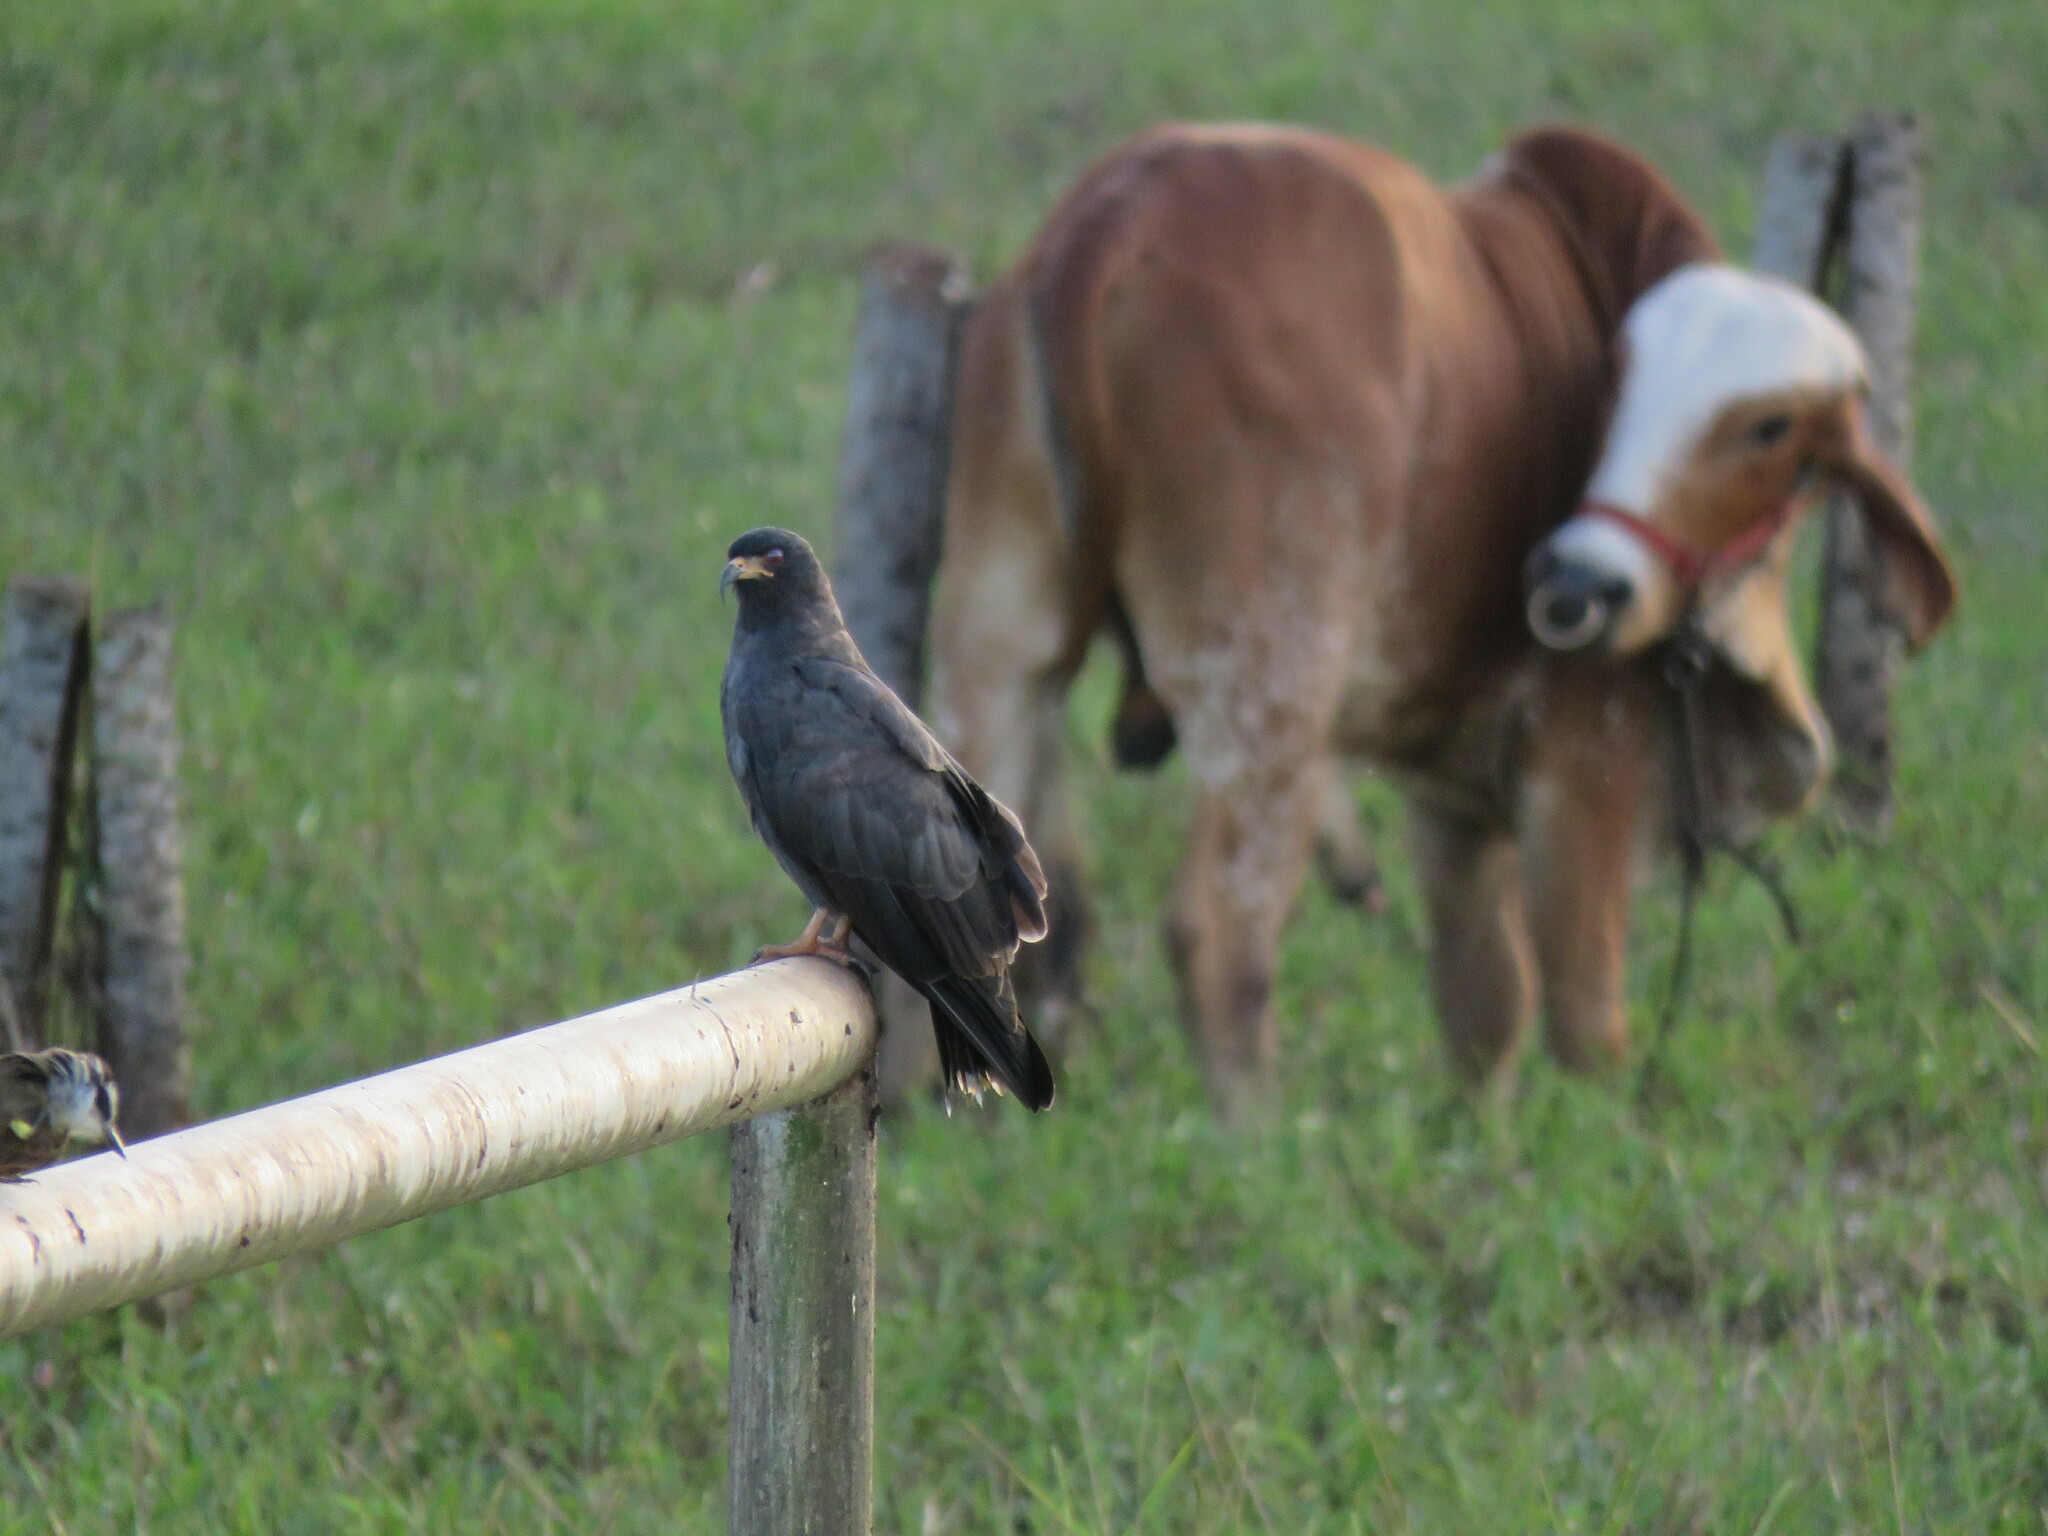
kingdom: Animalia
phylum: Chordata
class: Aves
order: Accipitriformes
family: Accipitridae
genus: Rostrhamus
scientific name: Rostrhamus sociabilis
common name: Snail kite
